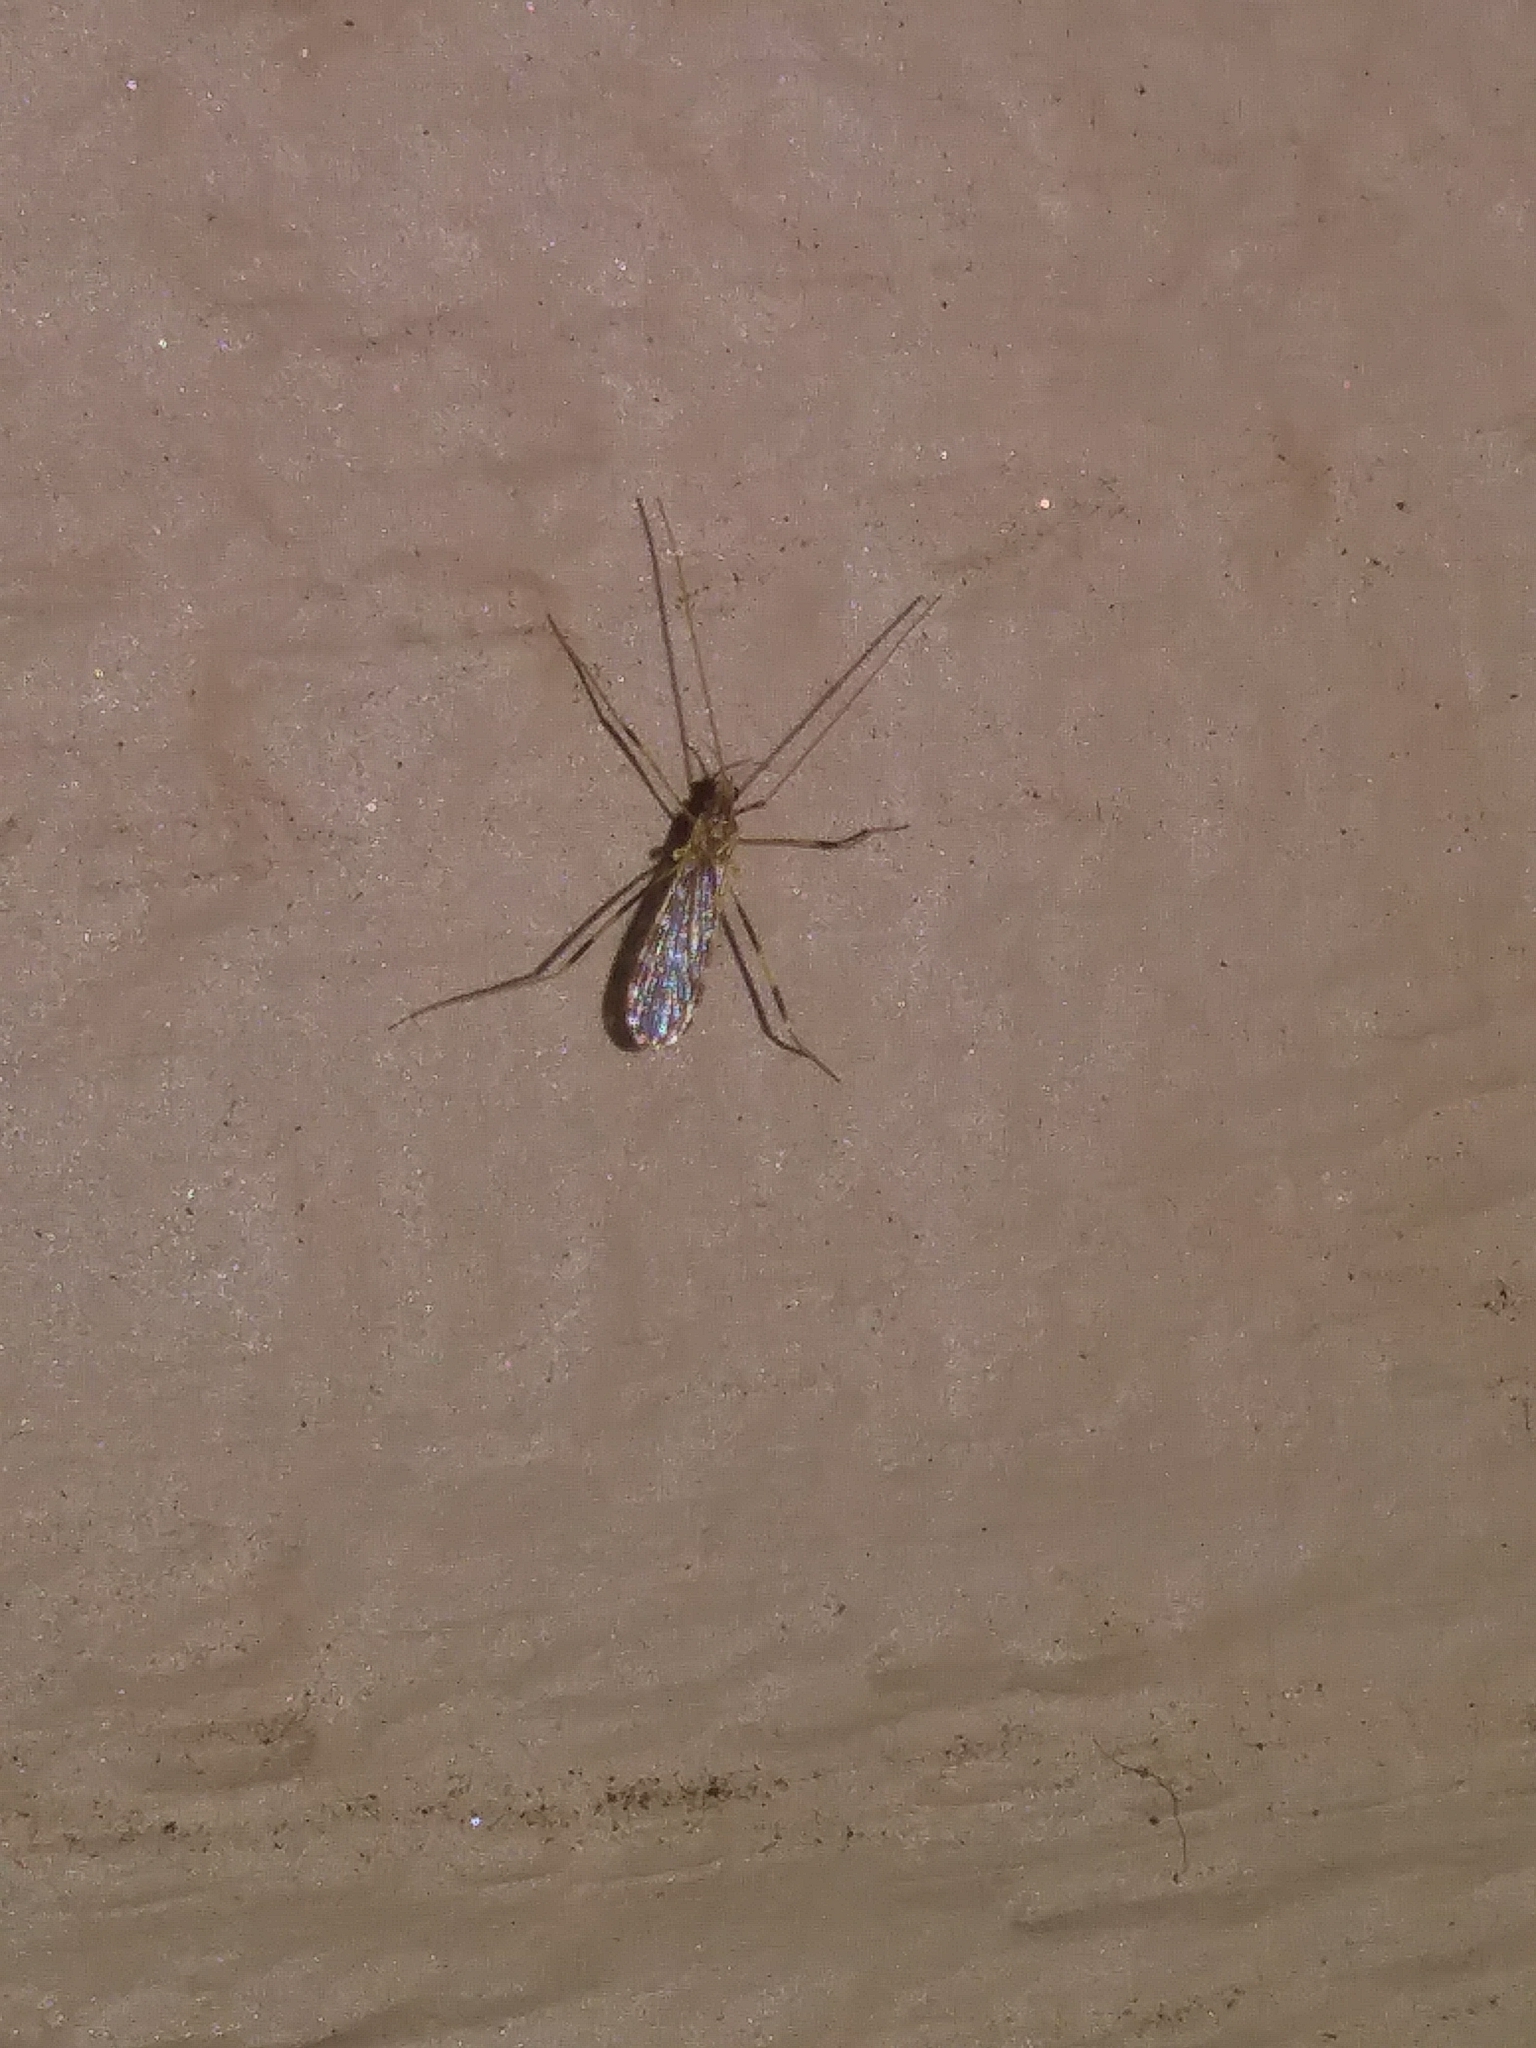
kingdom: Animalia
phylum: Arthropoda
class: Insecta
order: Diptera
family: Limoniidae
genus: Erioptera
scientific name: Erioptera caliptera
